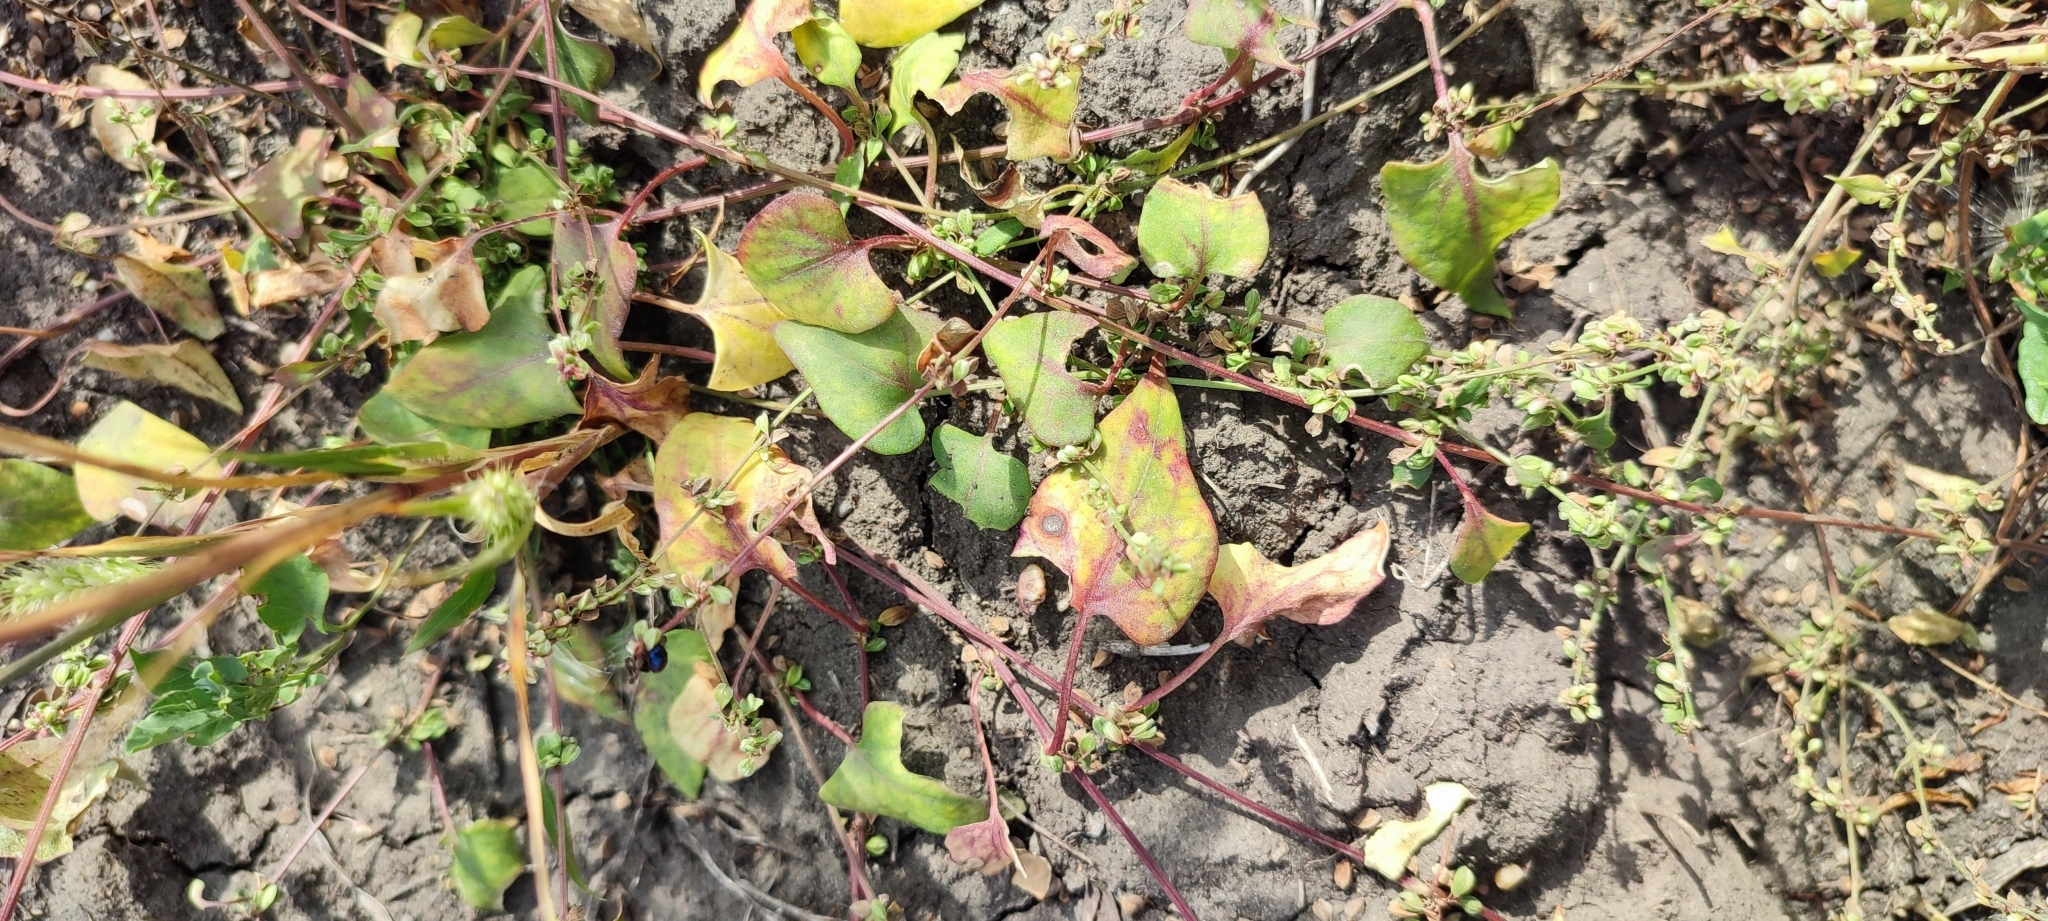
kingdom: Plantae
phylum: Tracheophyta
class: Magnoliopsida
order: Caryophyllales
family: Polygonaceae
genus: Fallopia
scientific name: Fallopia convolvulus
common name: Black bindweed
